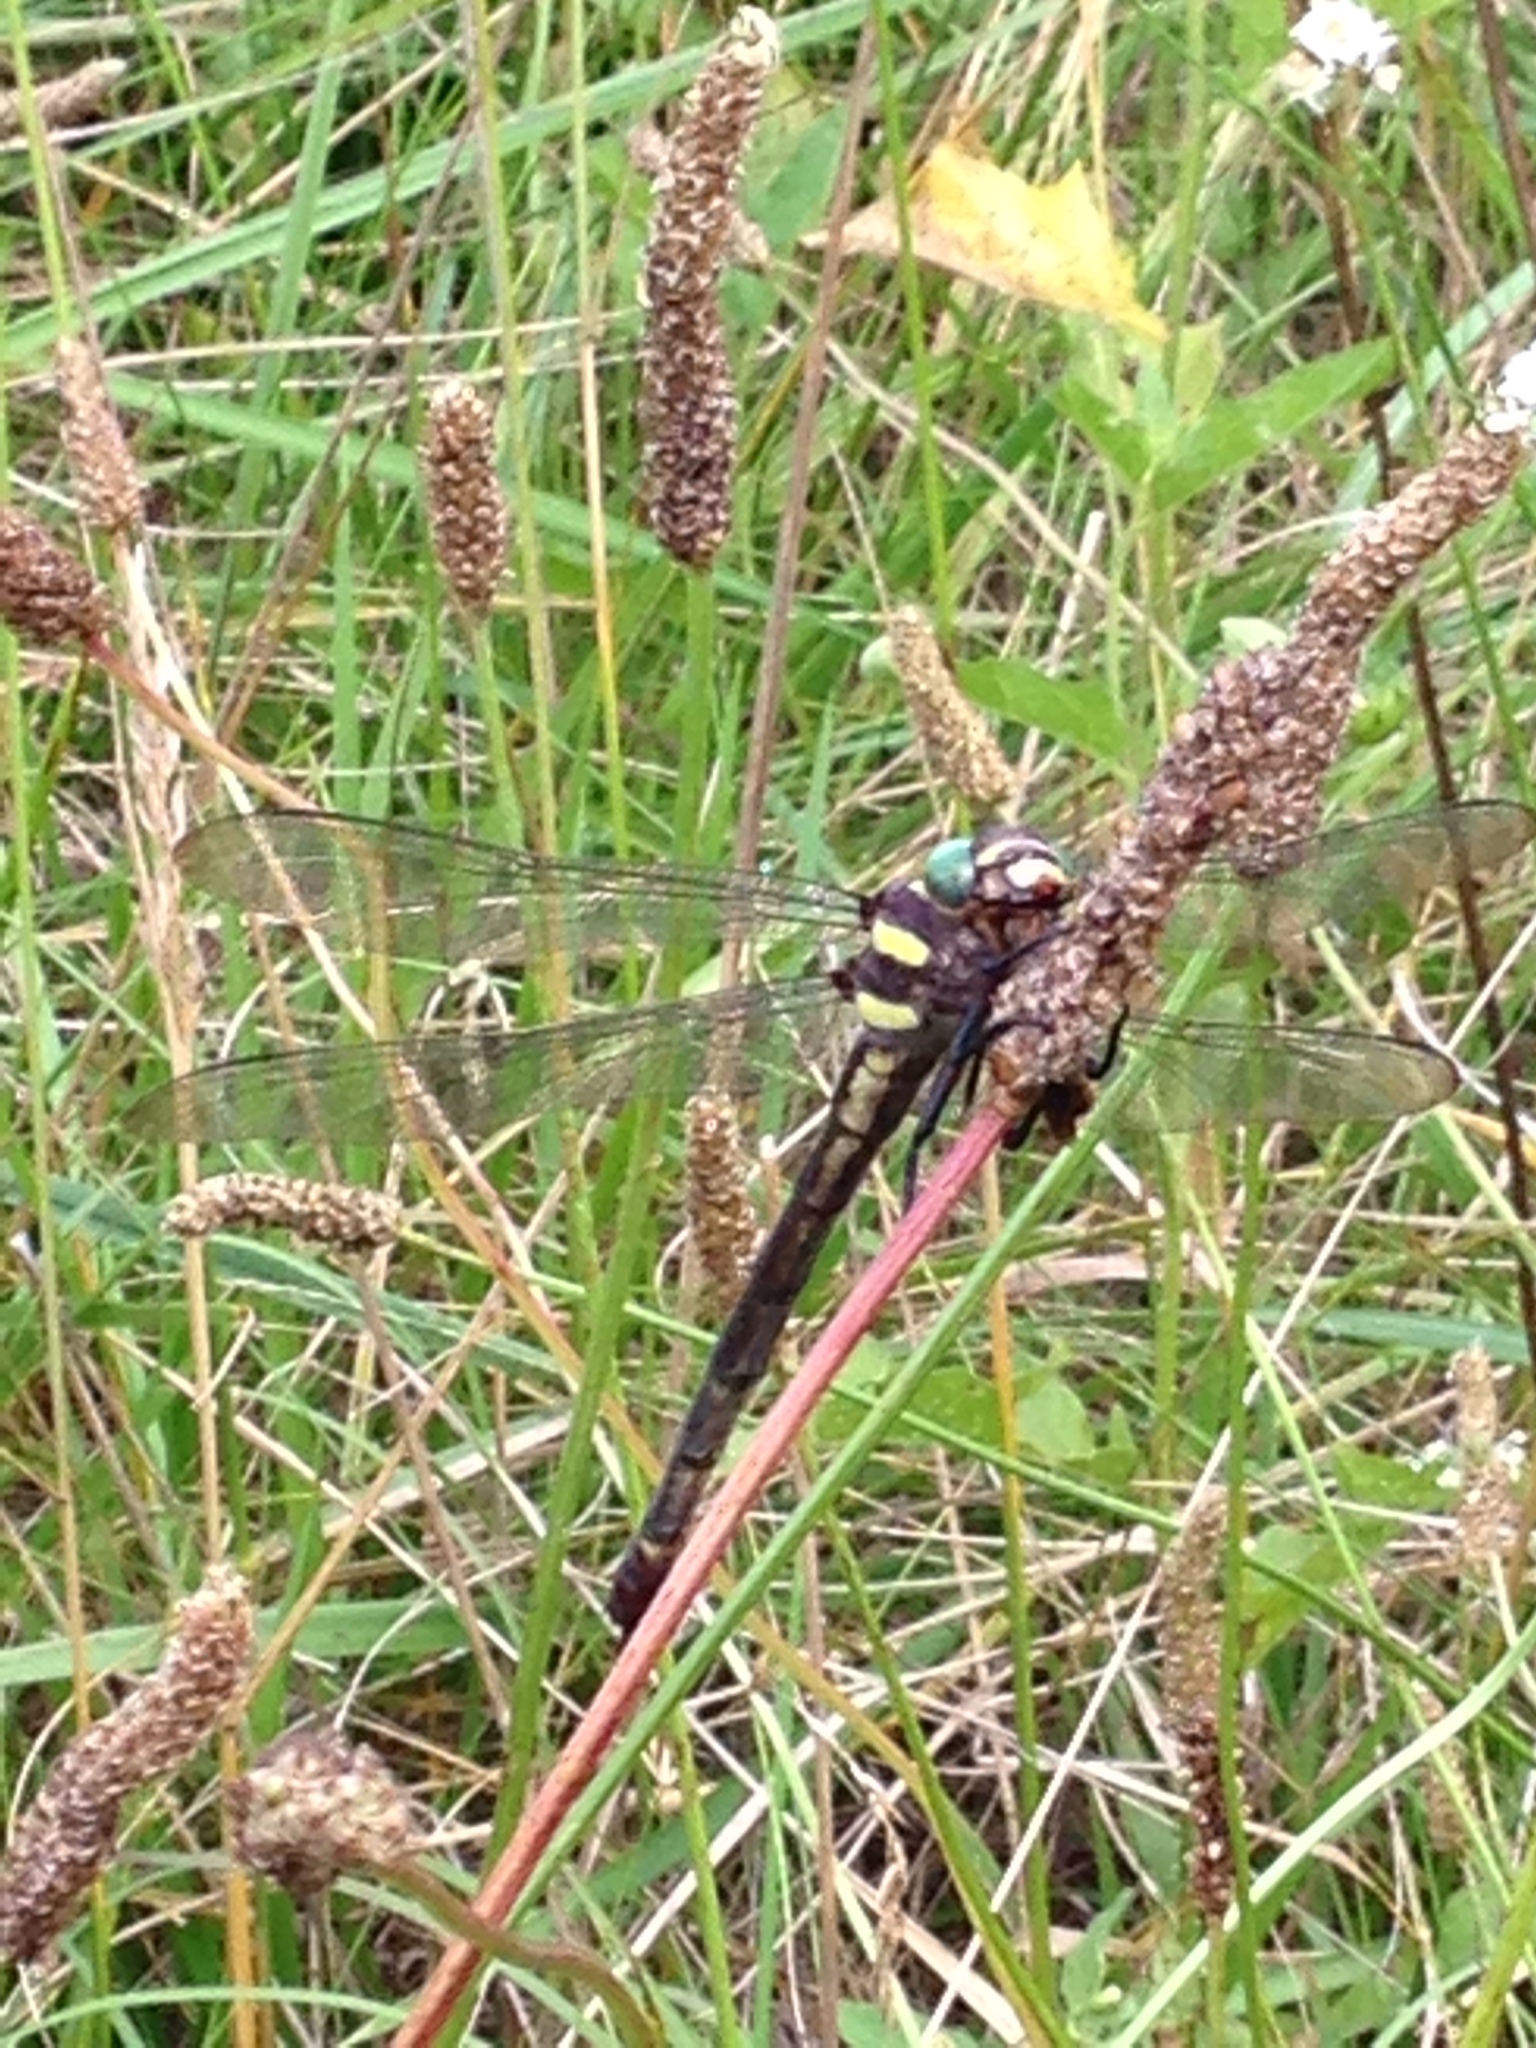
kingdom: Animalia
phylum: Arthropoda
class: Insecta
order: Odonata
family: Cordulegastridae
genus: Cordulegaster
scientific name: Cordulegaster bilineata
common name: Brown spiketail
